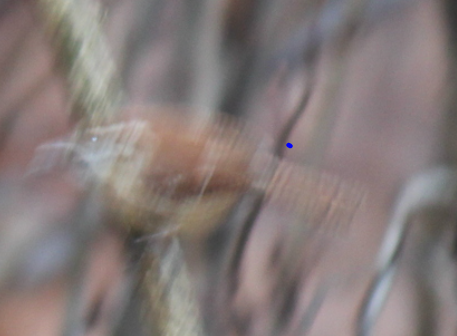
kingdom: Animalia
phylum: Chordata
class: Aves
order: Passeriformes
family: Troglodytidae
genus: Thryothorus
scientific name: Thryothorus ludovicianus
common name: Carolina wren
